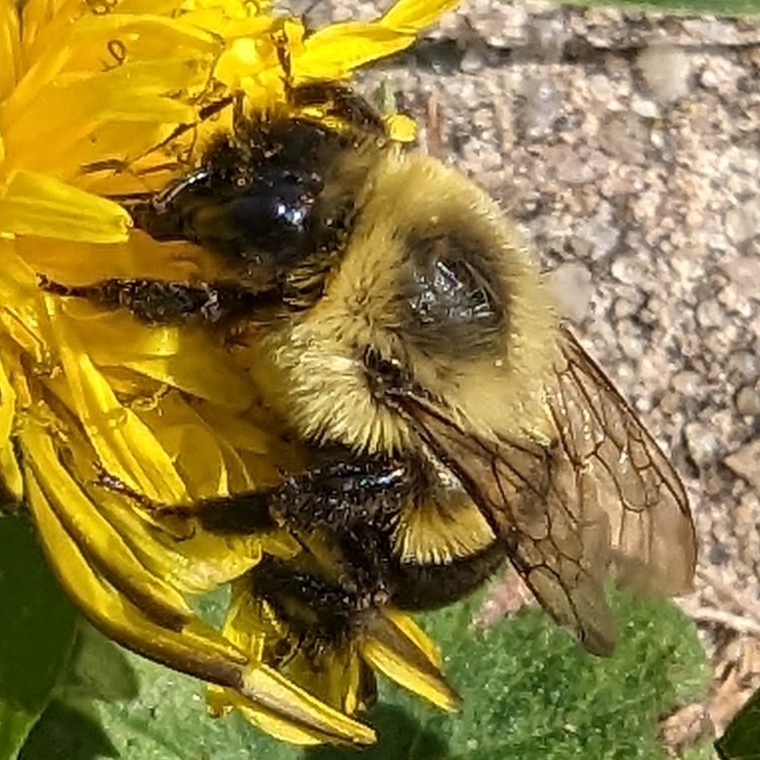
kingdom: Animalia
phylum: Arthropoda
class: Insecta
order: Hymenoptera
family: Apidae
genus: Bombus
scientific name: Bombus impatiens
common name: Common eastern bumble bee
